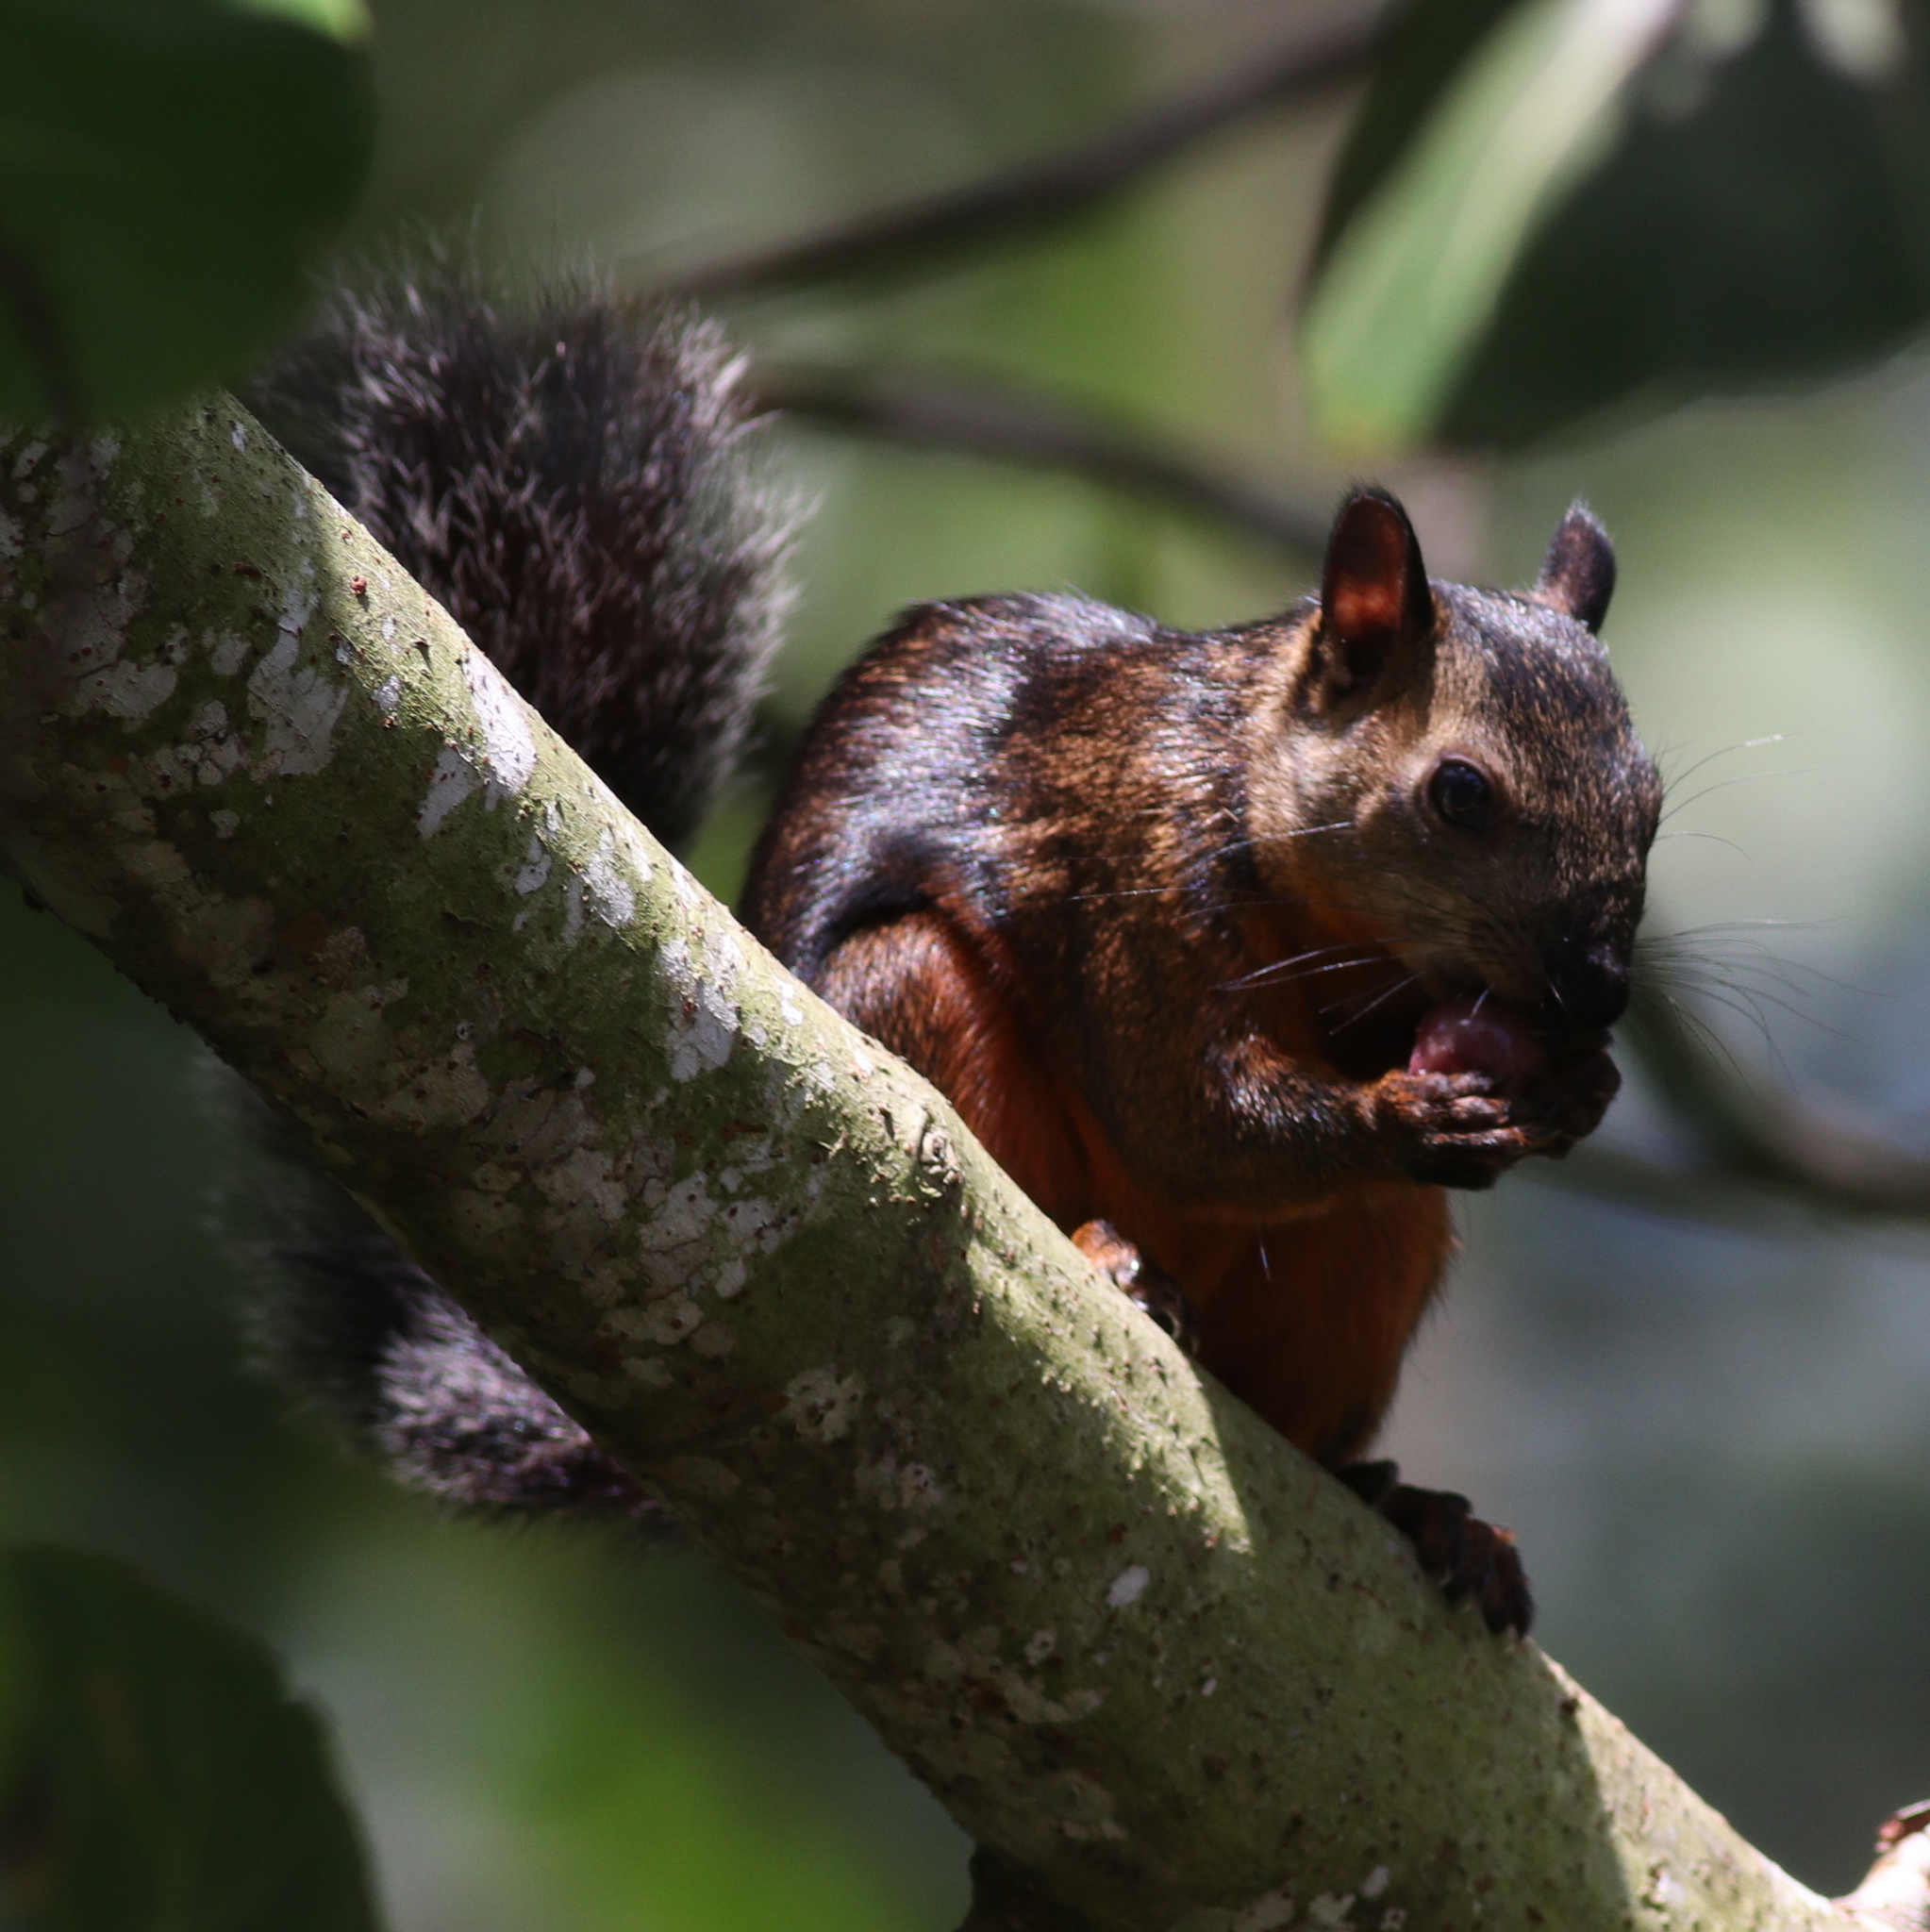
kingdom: Animalia
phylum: Chordata
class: Mammalia
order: Rodentia
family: Sciuridae
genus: Sciurus
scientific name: Sciurus variegatoides
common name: Variegated squirrel
